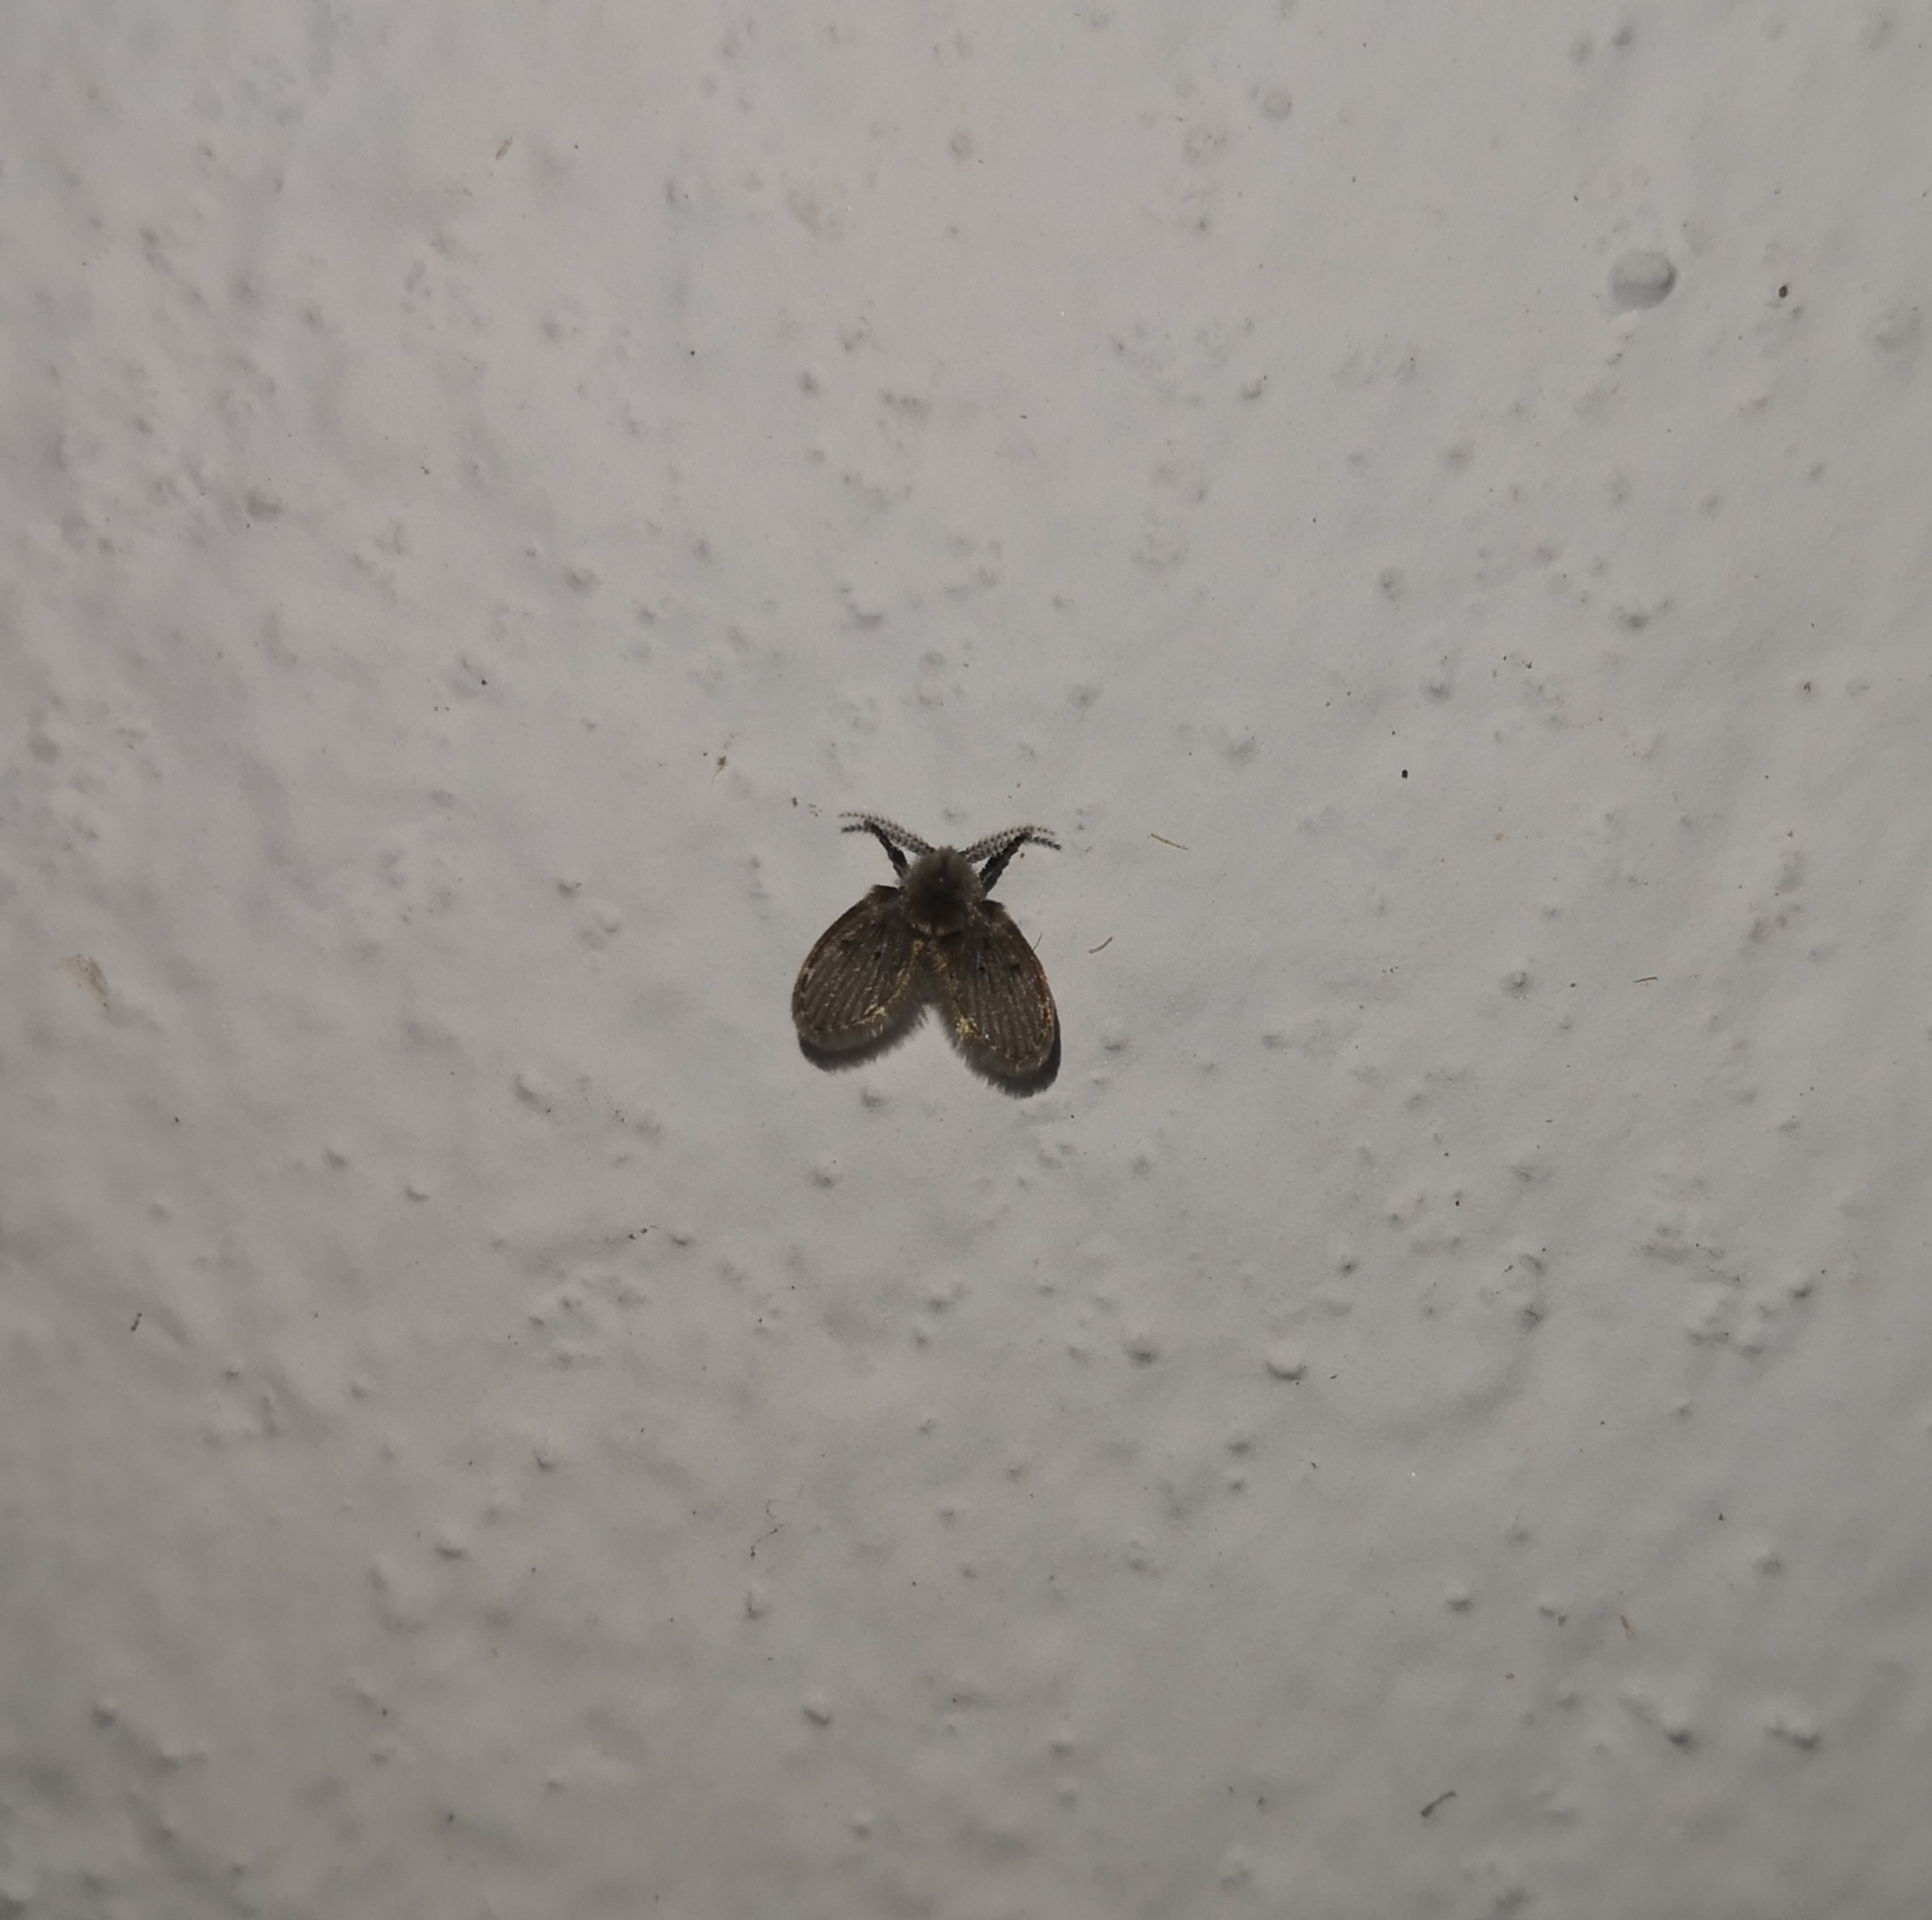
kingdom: Animalia
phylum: Arthropoda
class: Insecta
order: Diptera
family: Psychodidae
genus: Clogmia
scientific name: Clogmia albipunctatus
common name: White-spotted moth fly
